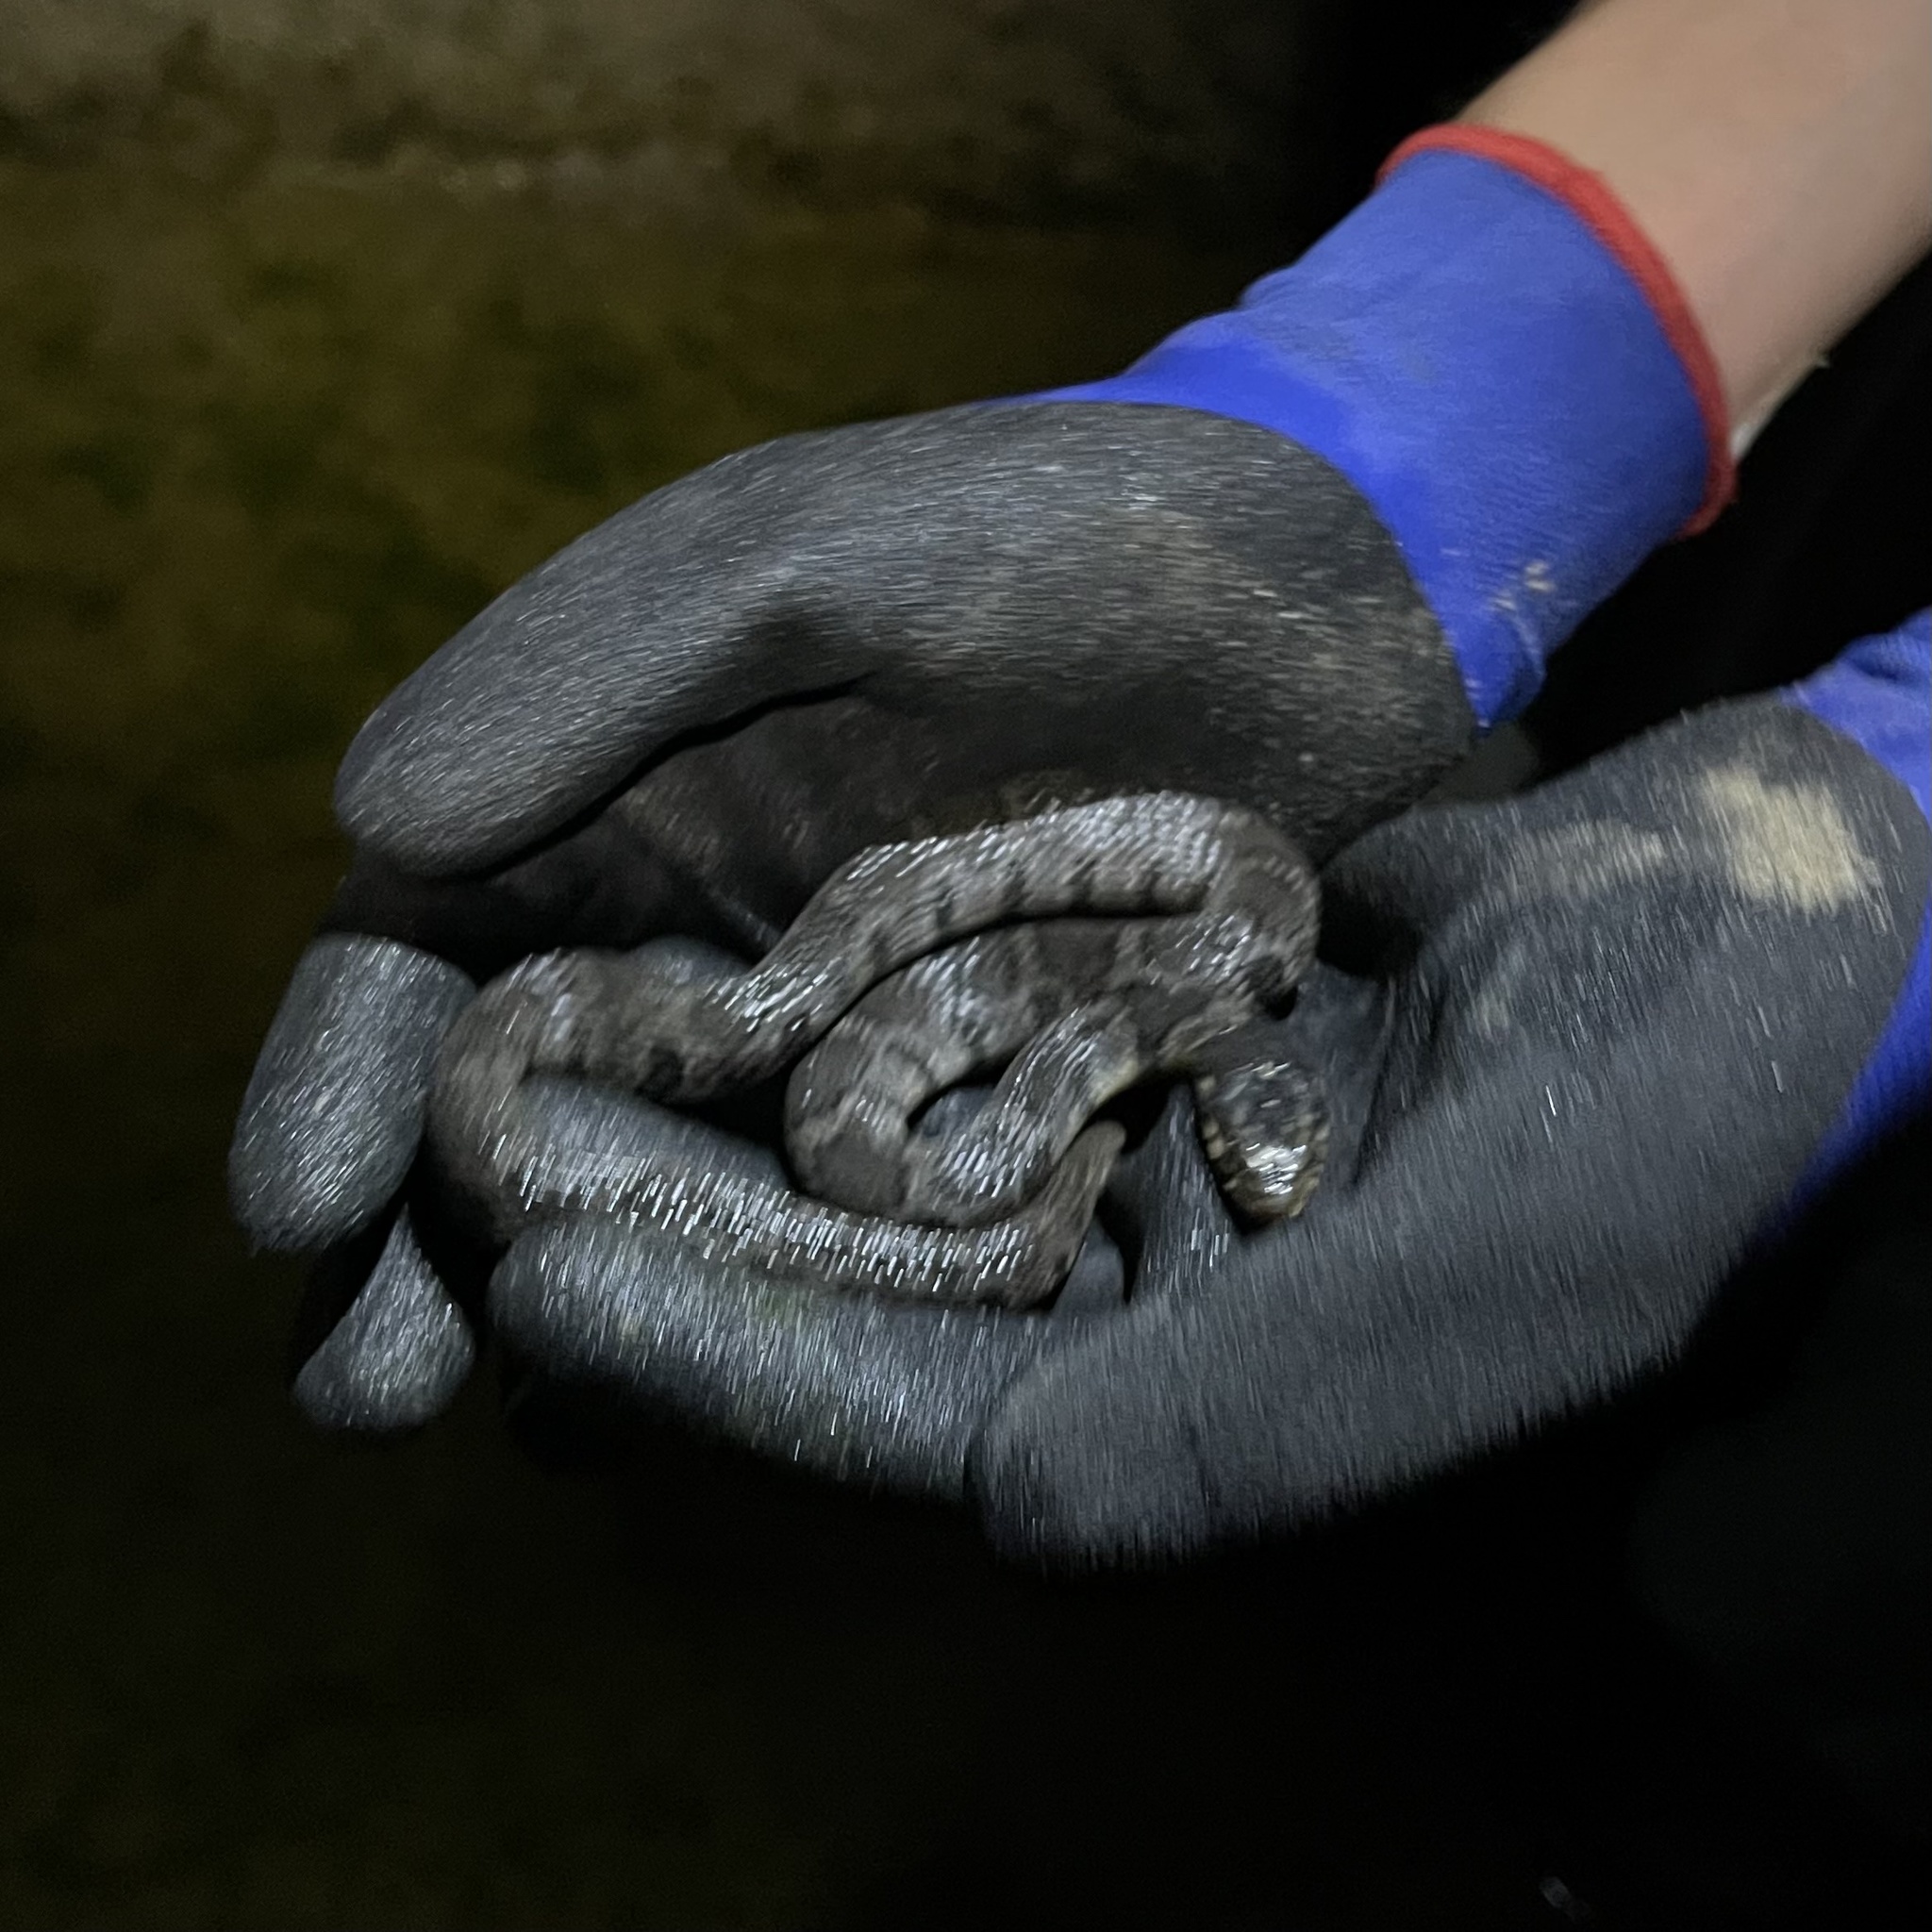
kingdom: Animalia
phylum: Chordata
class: Squamata
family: Colubridae
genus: Nerodia
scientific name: Nerodia erythrogaster
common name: Plainbelly water snake
